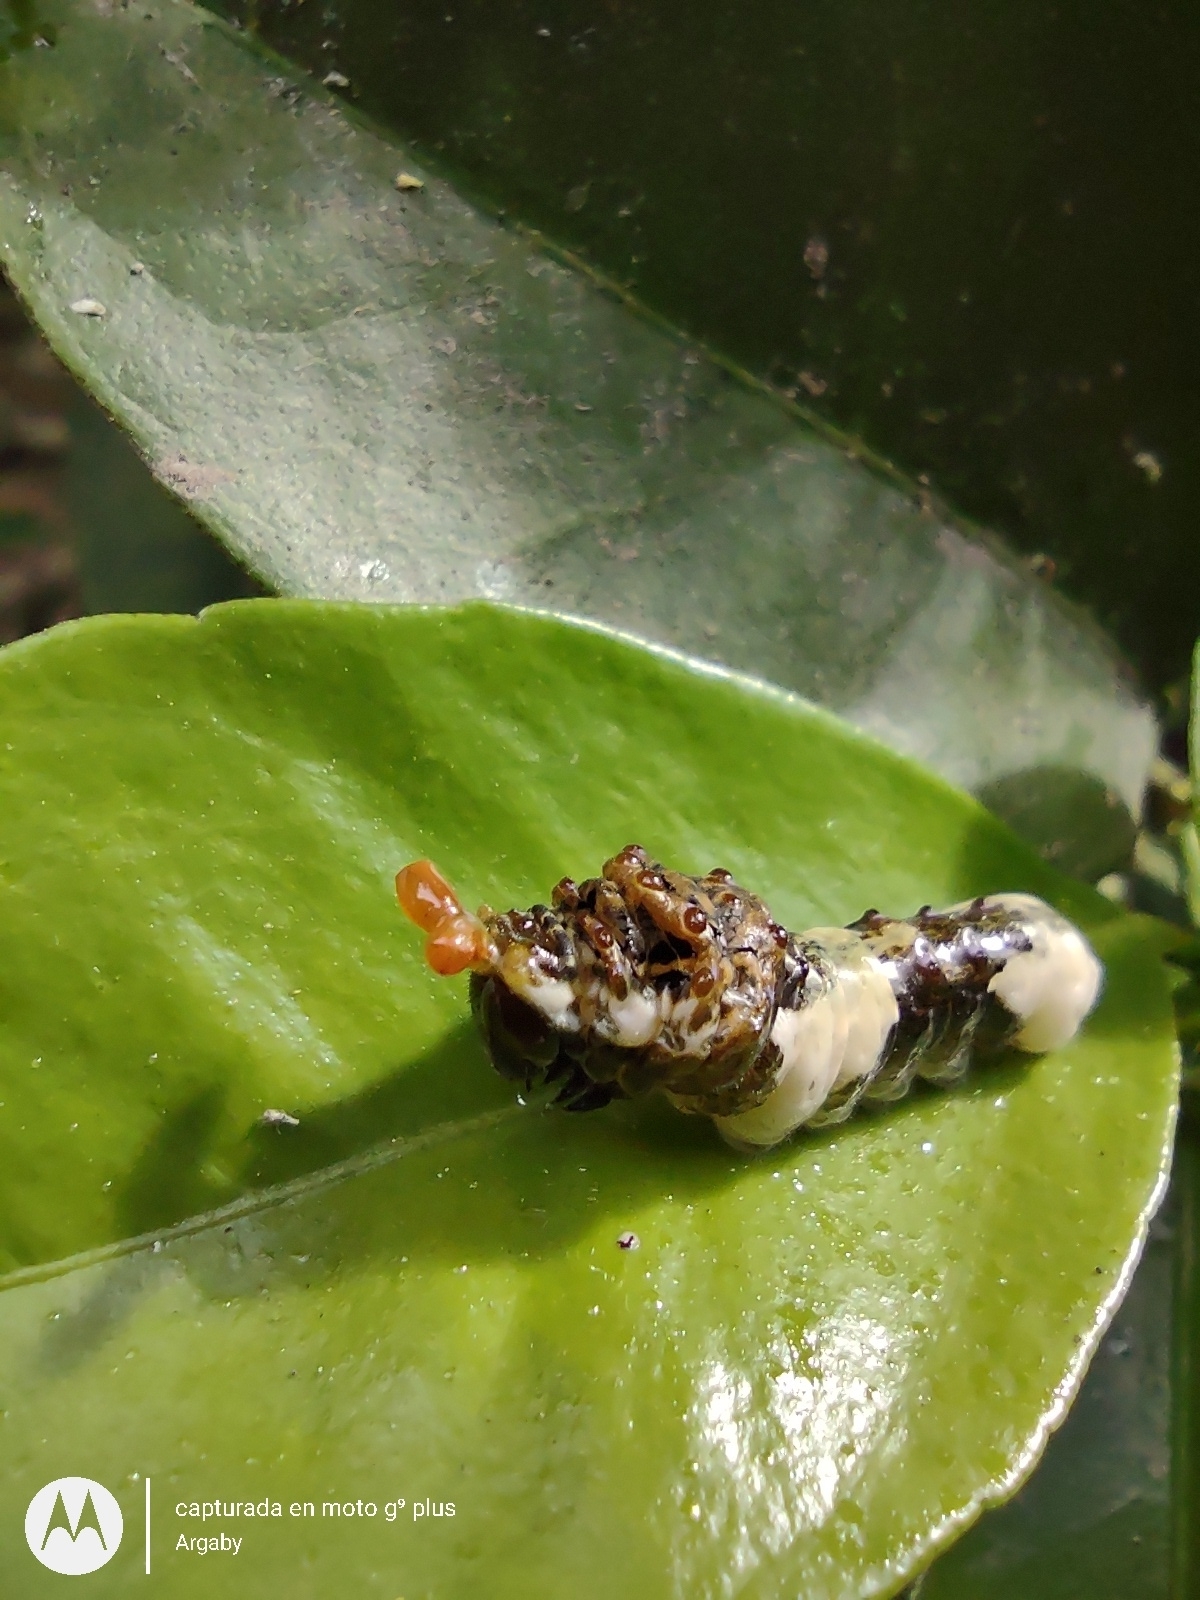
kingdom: Animalia
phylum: Arthropoda
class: Insecta
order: Lepidoptera
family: Papilionidae
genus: Papilio
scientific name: Papilio thoas
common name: King swallowtail
